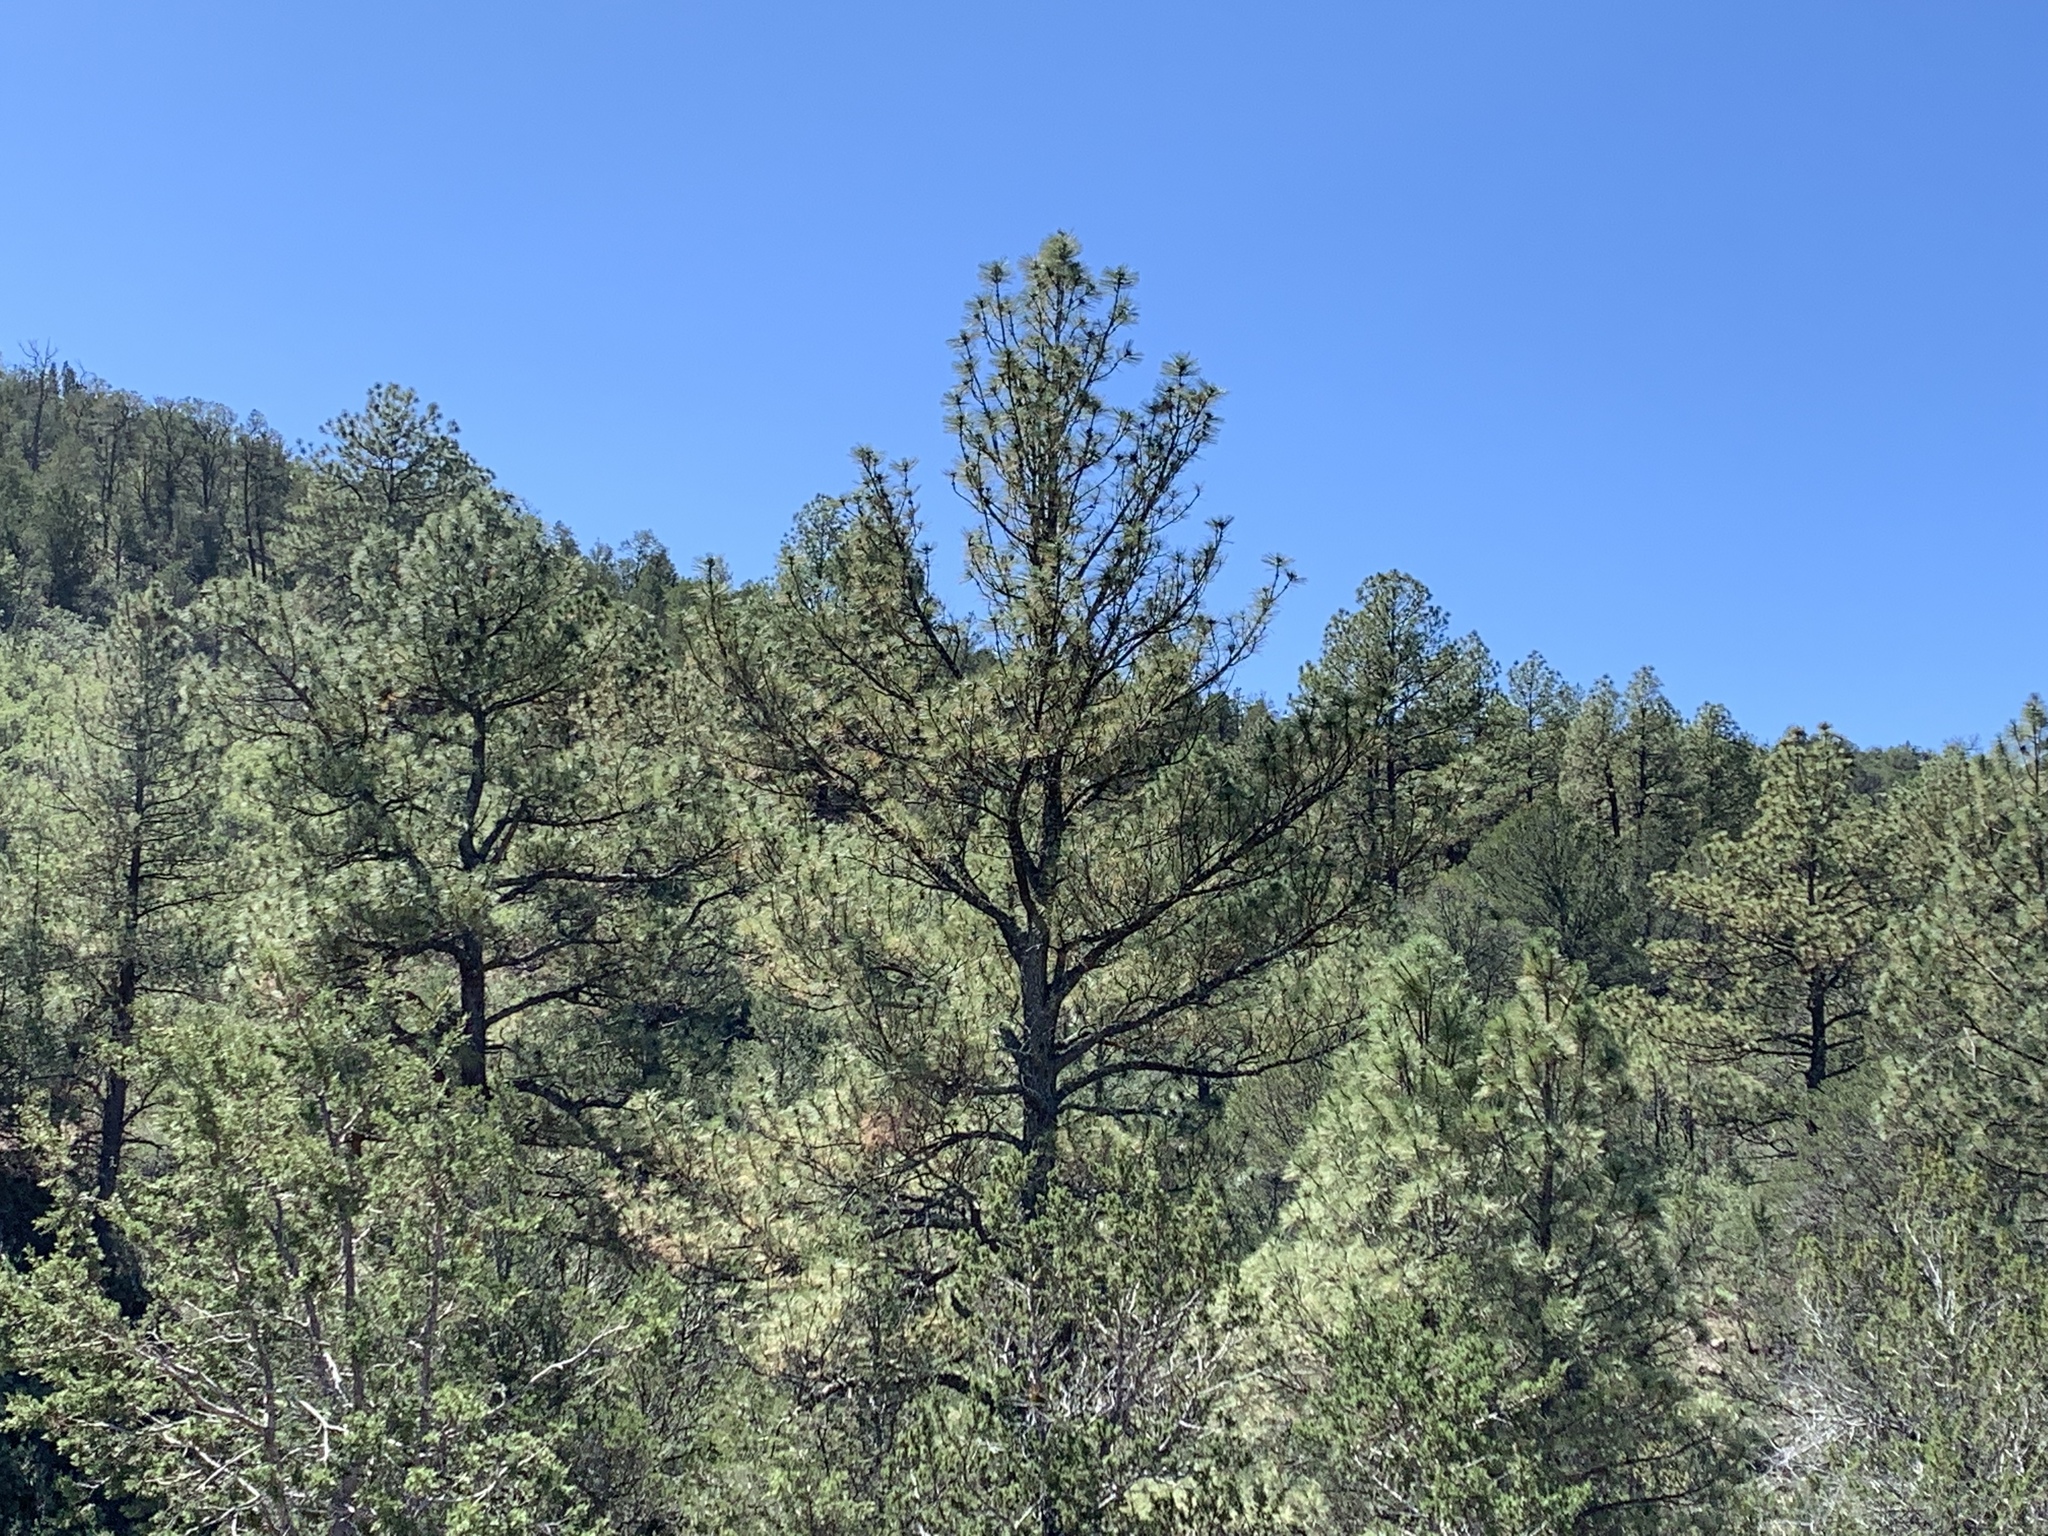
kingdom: Plantae
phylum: Tracheophyta
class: Pinopsida
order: Pinales
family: Pinaceae
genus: Pinus
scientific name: Pinus ponderosa
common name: Western yellow-pine
